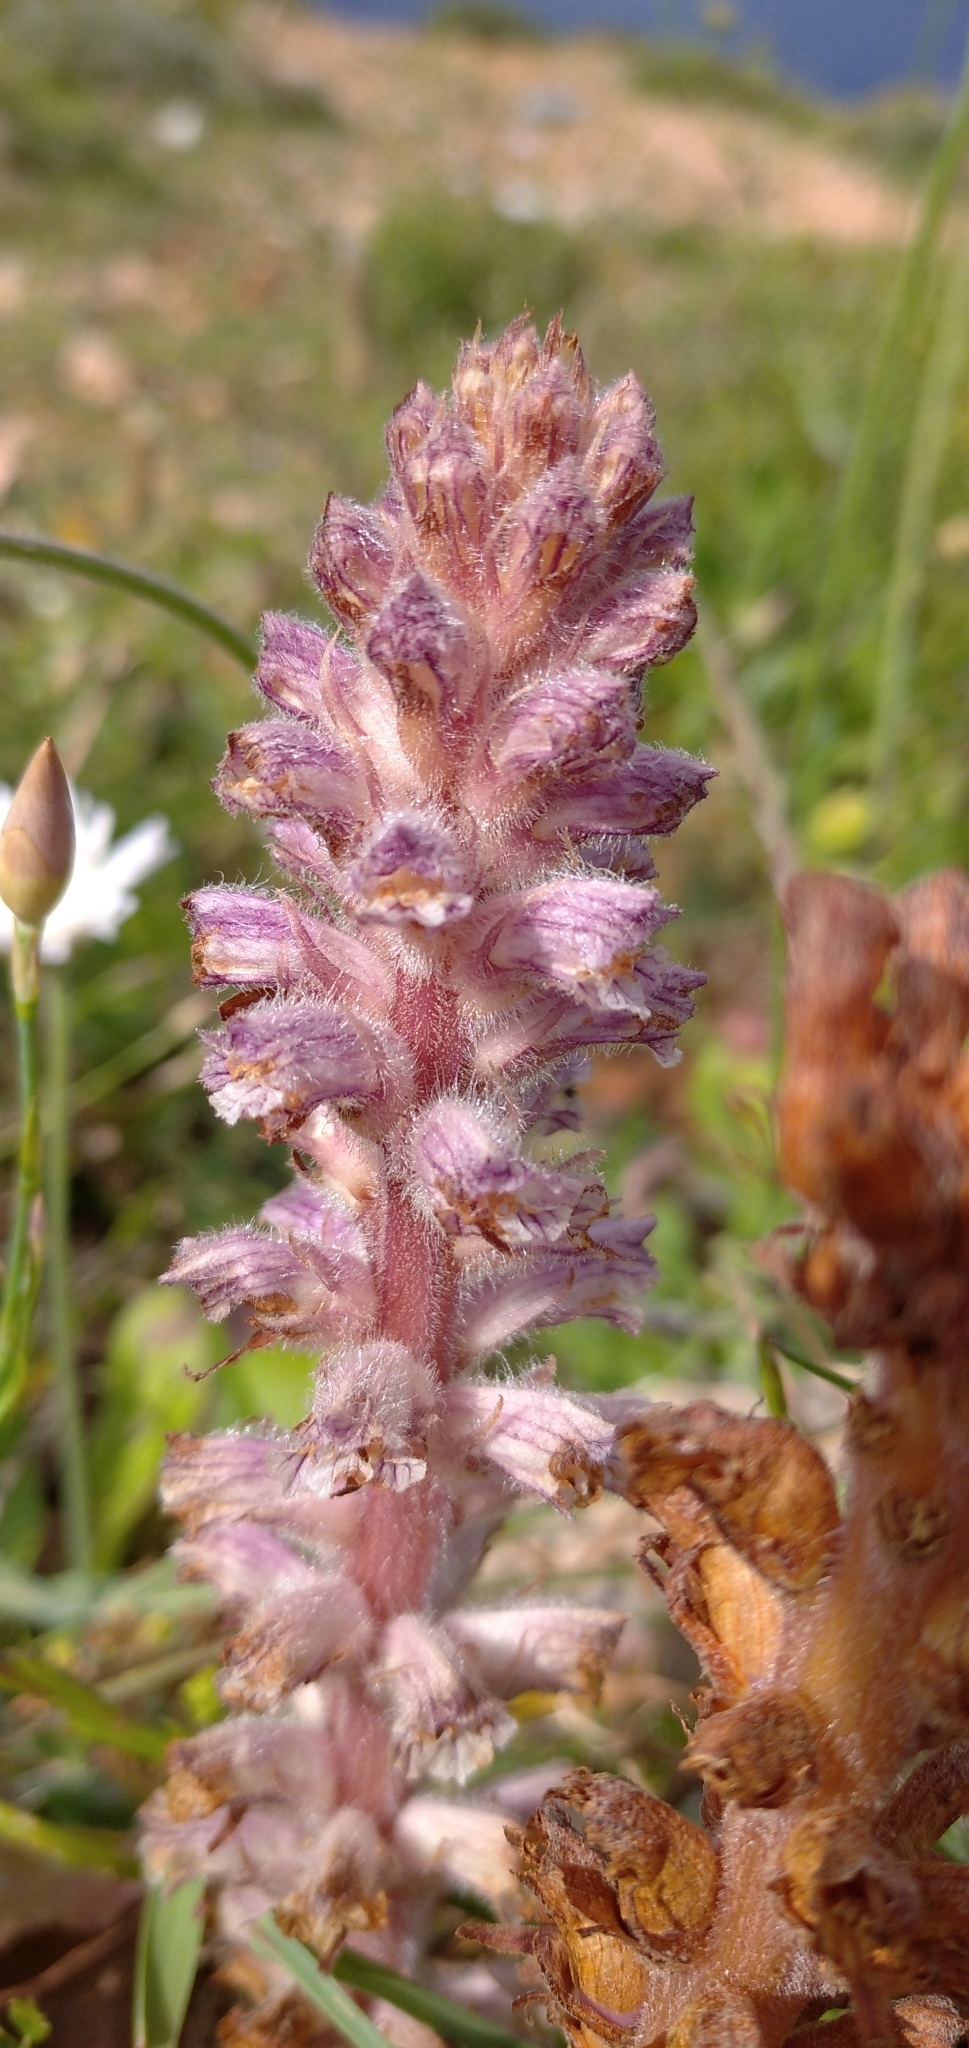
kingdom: Plantae
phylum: Tracheophyta
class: Magnoliopsida
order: Lamiales
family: Orobanchaceae
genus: Orobanche
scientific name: Orobanche pubescens
